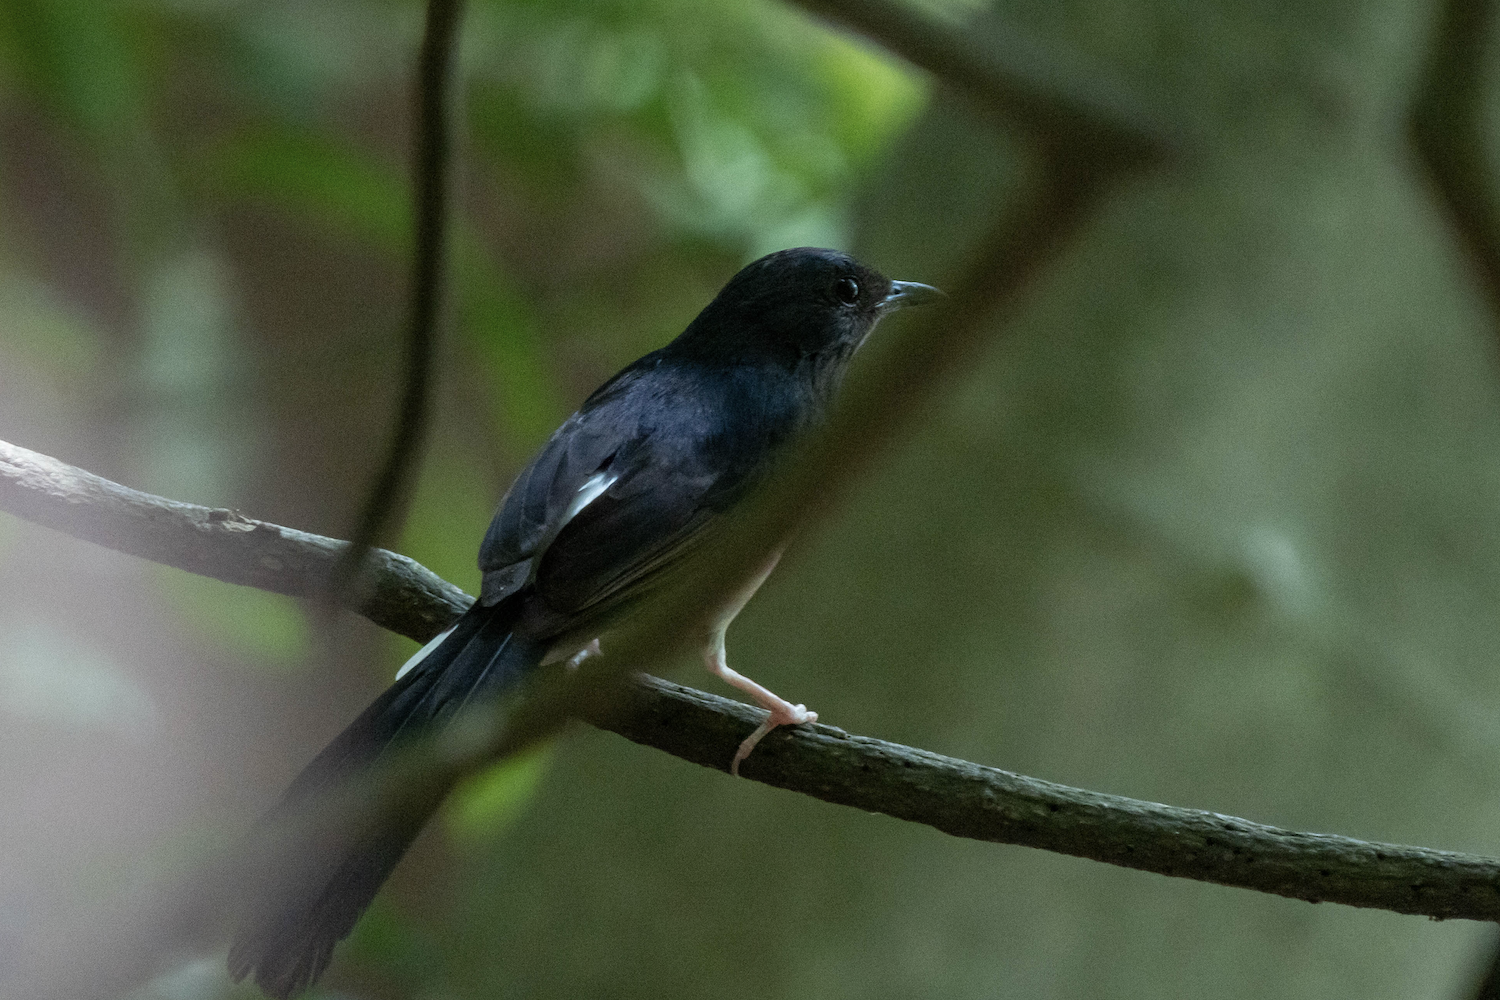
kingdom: Animalia
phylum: Chordata
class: Aves
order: Passeriformes
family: Muscicapidae
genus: Copsychus
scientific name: Copsychus malabaricus
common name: White-rumped shama
